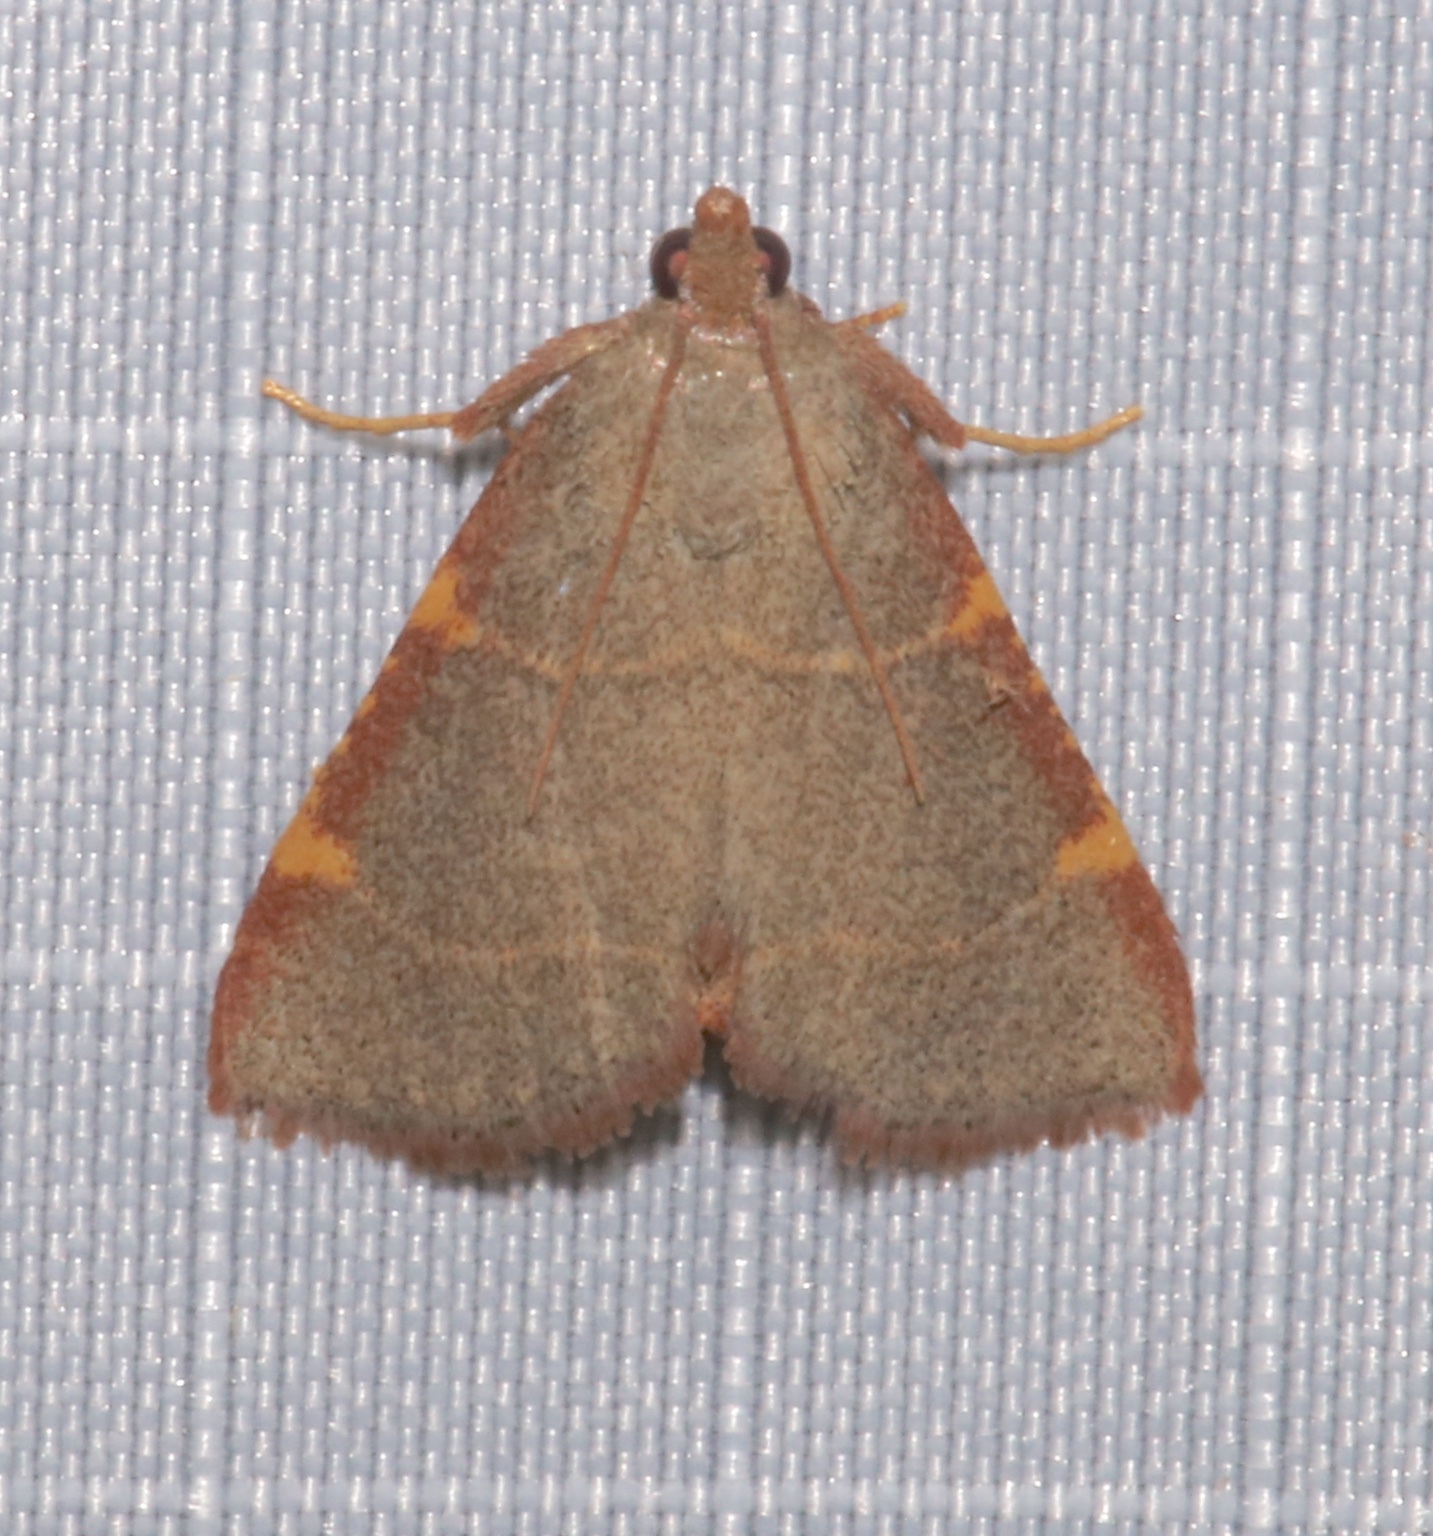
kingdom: Animalia
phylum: Arthropoda
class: Insecta
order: Lepidoptera
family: Pyralidae
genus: Hypsopygia
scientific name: Hypsopygia binodulalis
